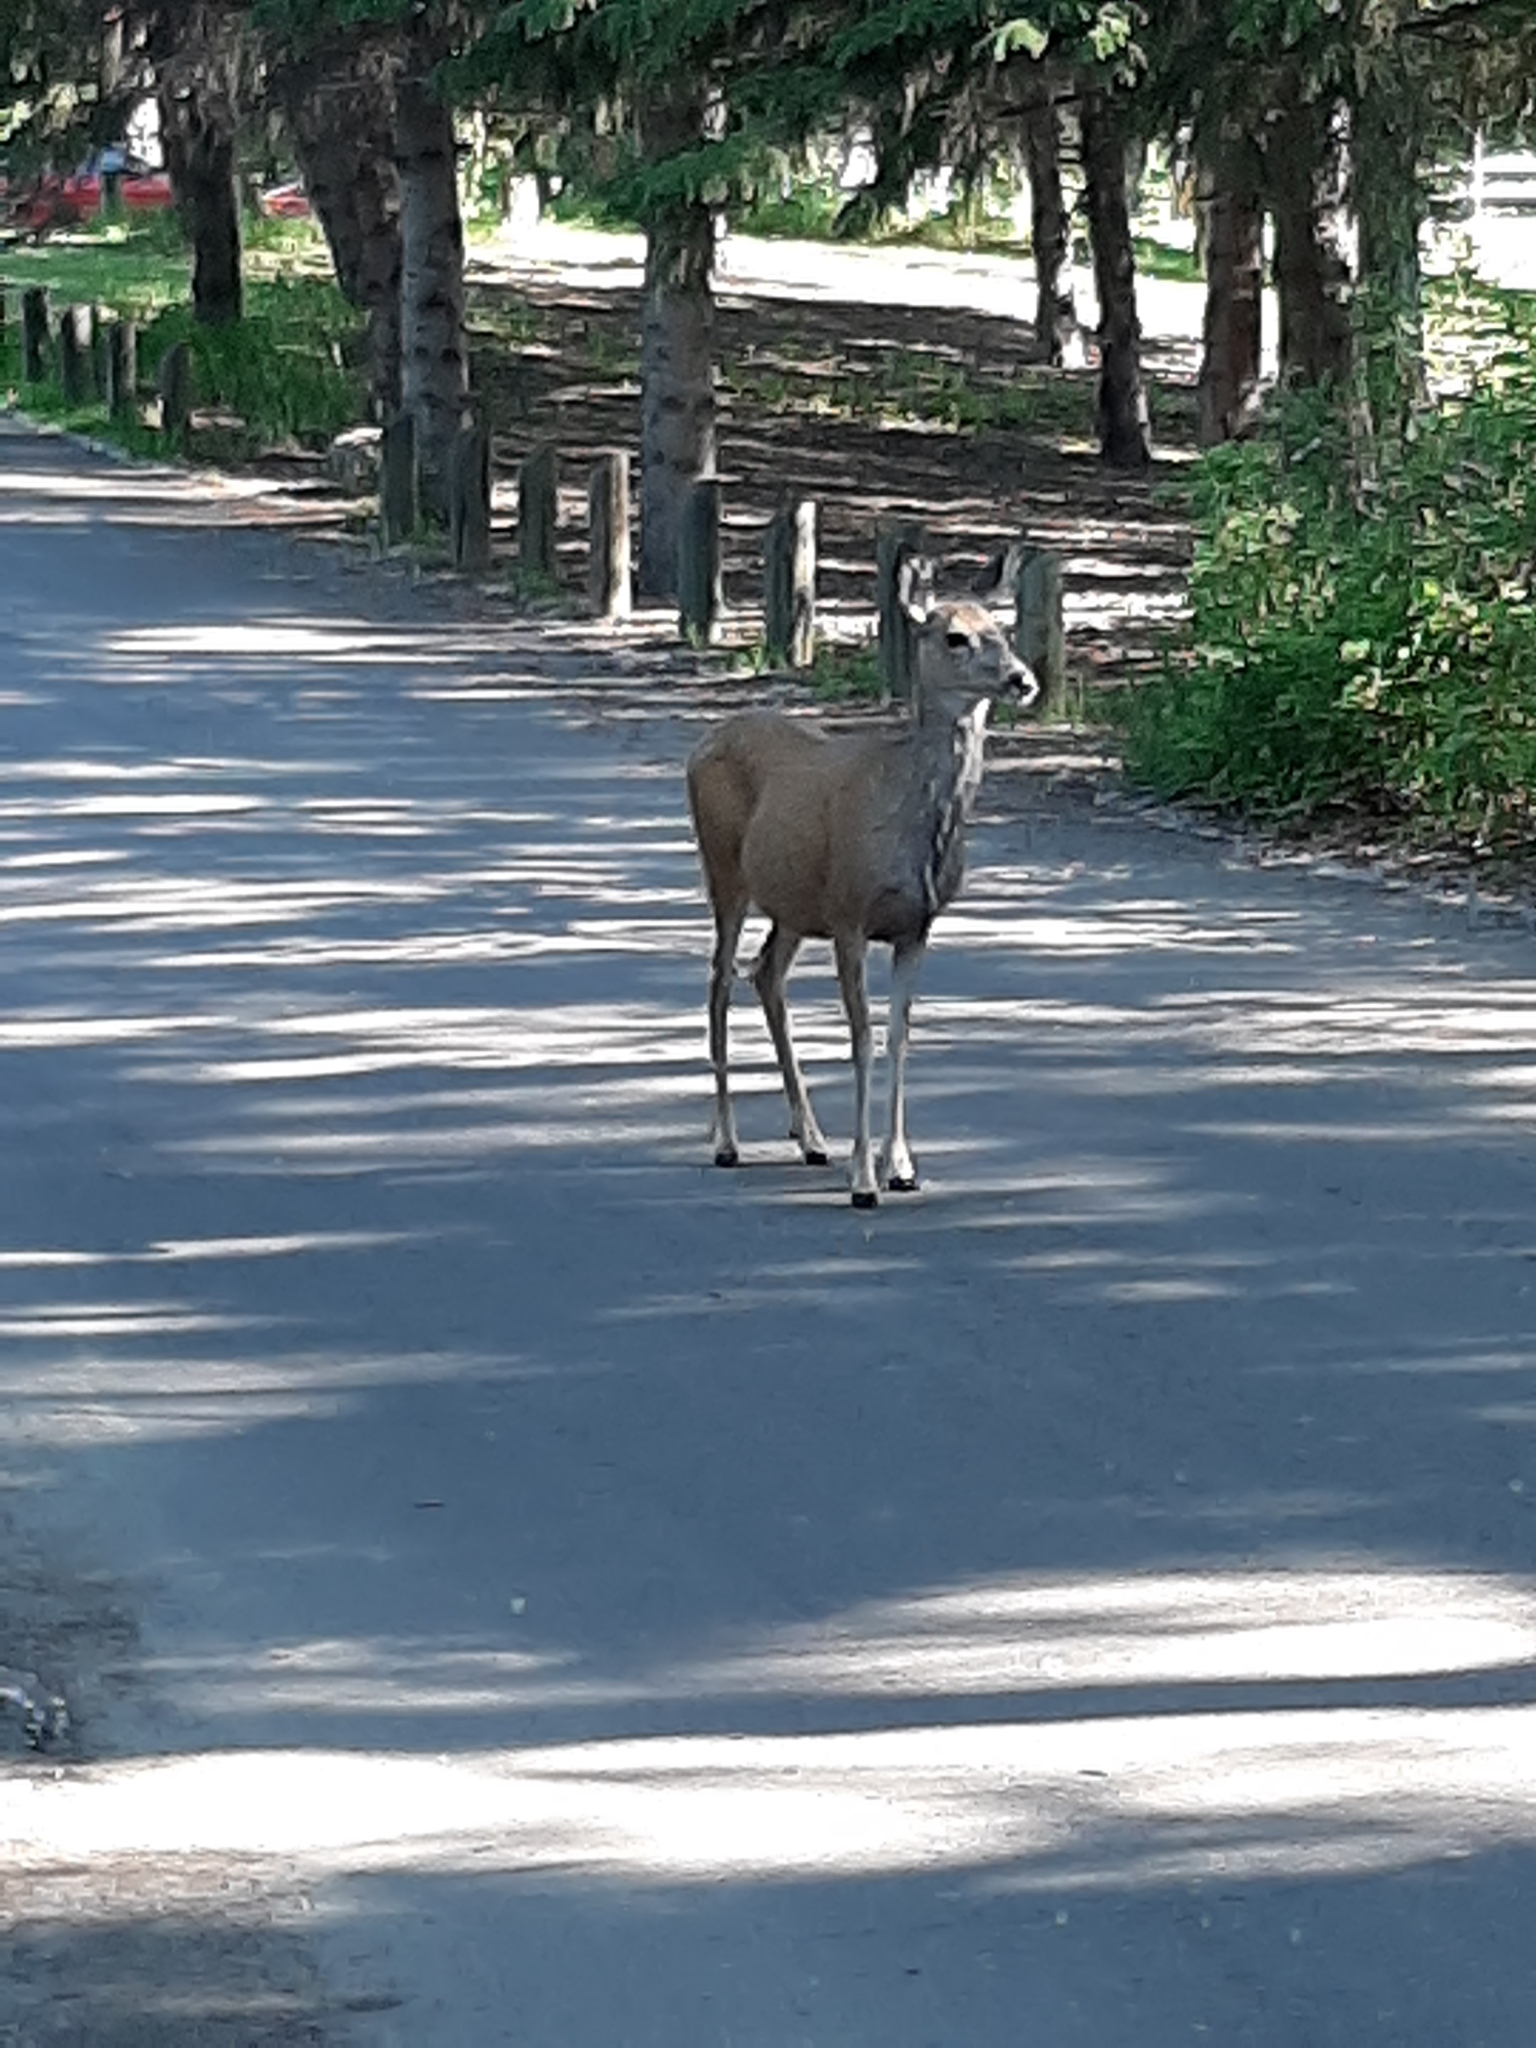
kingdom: Animalia
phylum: Chordata
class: Mammalia
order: Artiodactyla
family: Cervidae
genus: Odocoileus
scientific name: Odocoileus hemionus
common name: Mule deer
